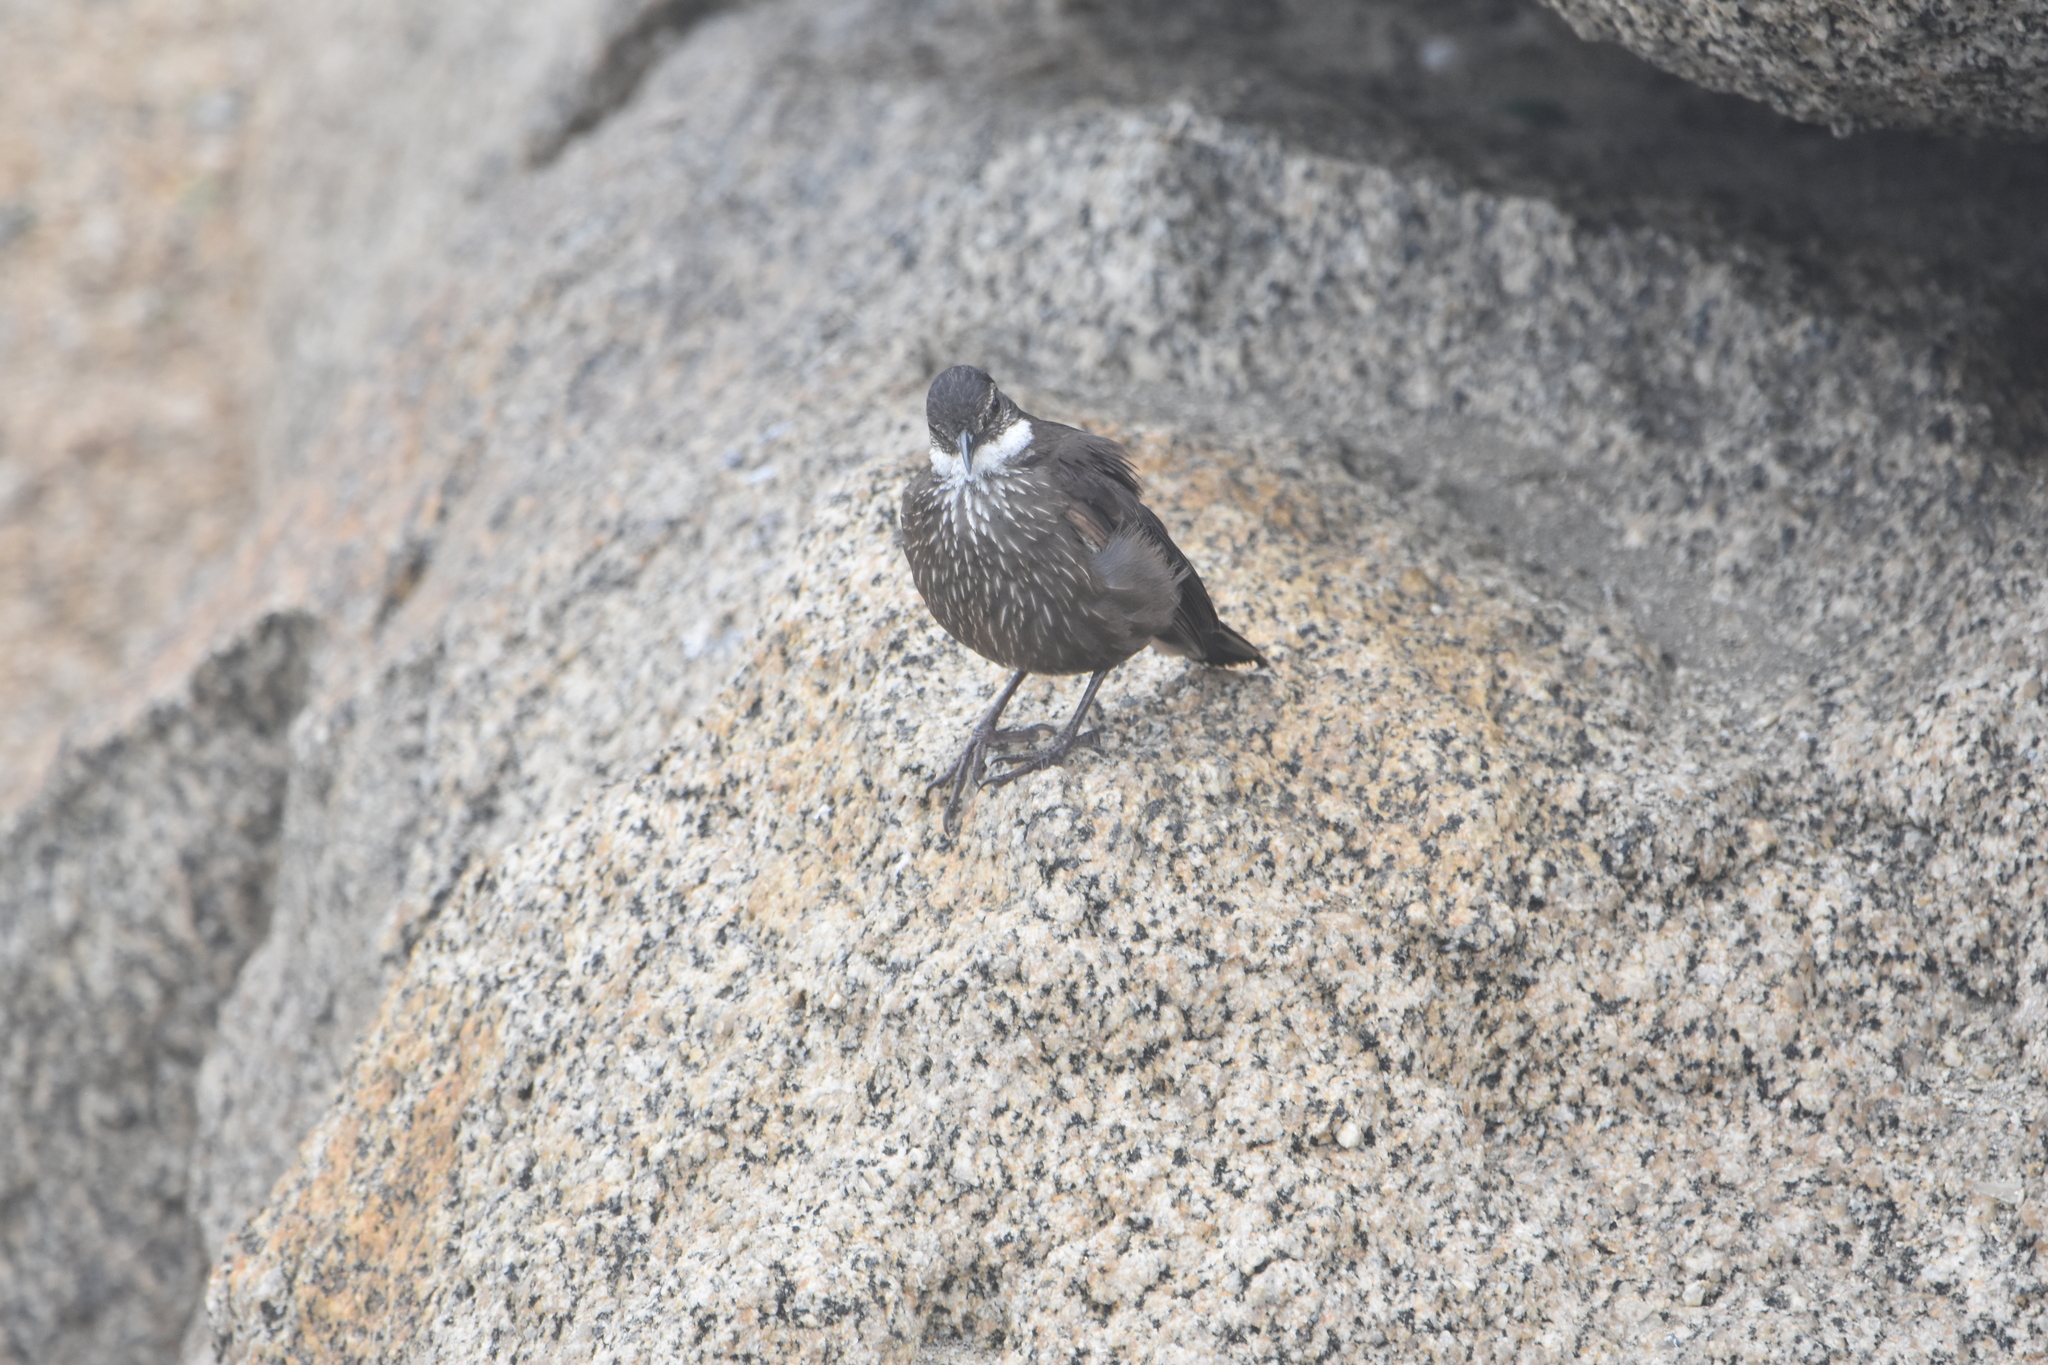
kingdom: Animalia
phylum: Chordata
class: Aves
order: Passeriformes
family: Furnariidae
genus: Cinclodes
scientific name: Cinclodes nigrofumosus
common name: Chilean seaside cinclodes
